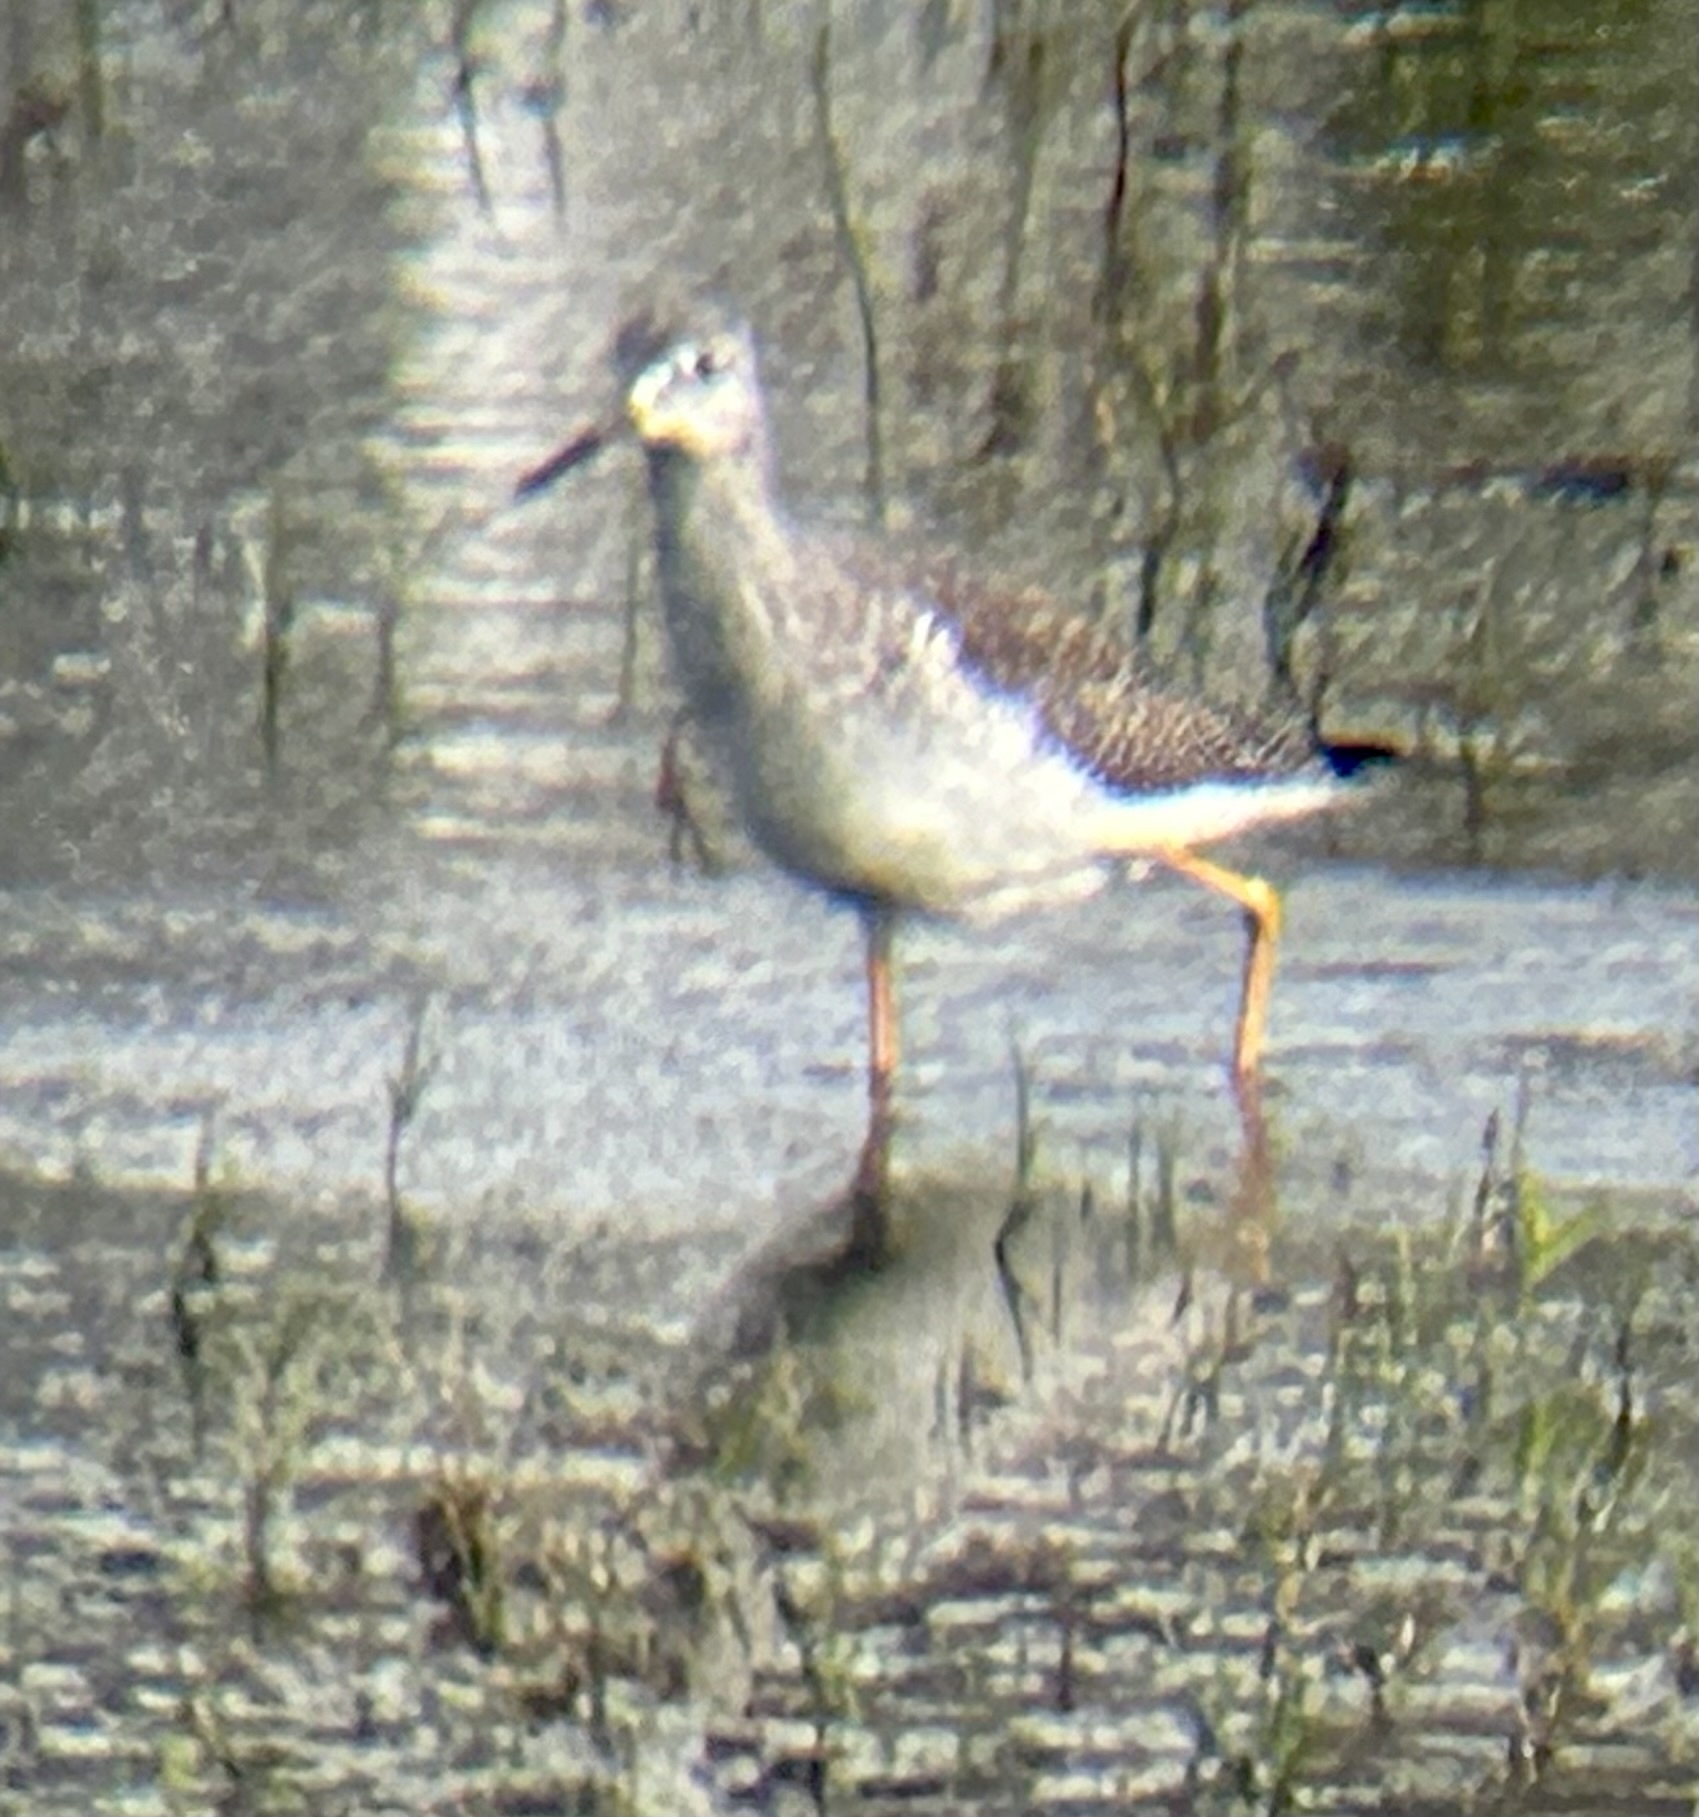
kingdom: Animalia
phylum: Chordata
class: Aves
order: Charadriiformes
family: Scolopacidae
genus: Tringa
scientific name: Tringa melanoleuca
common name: Greater yellowlegs
